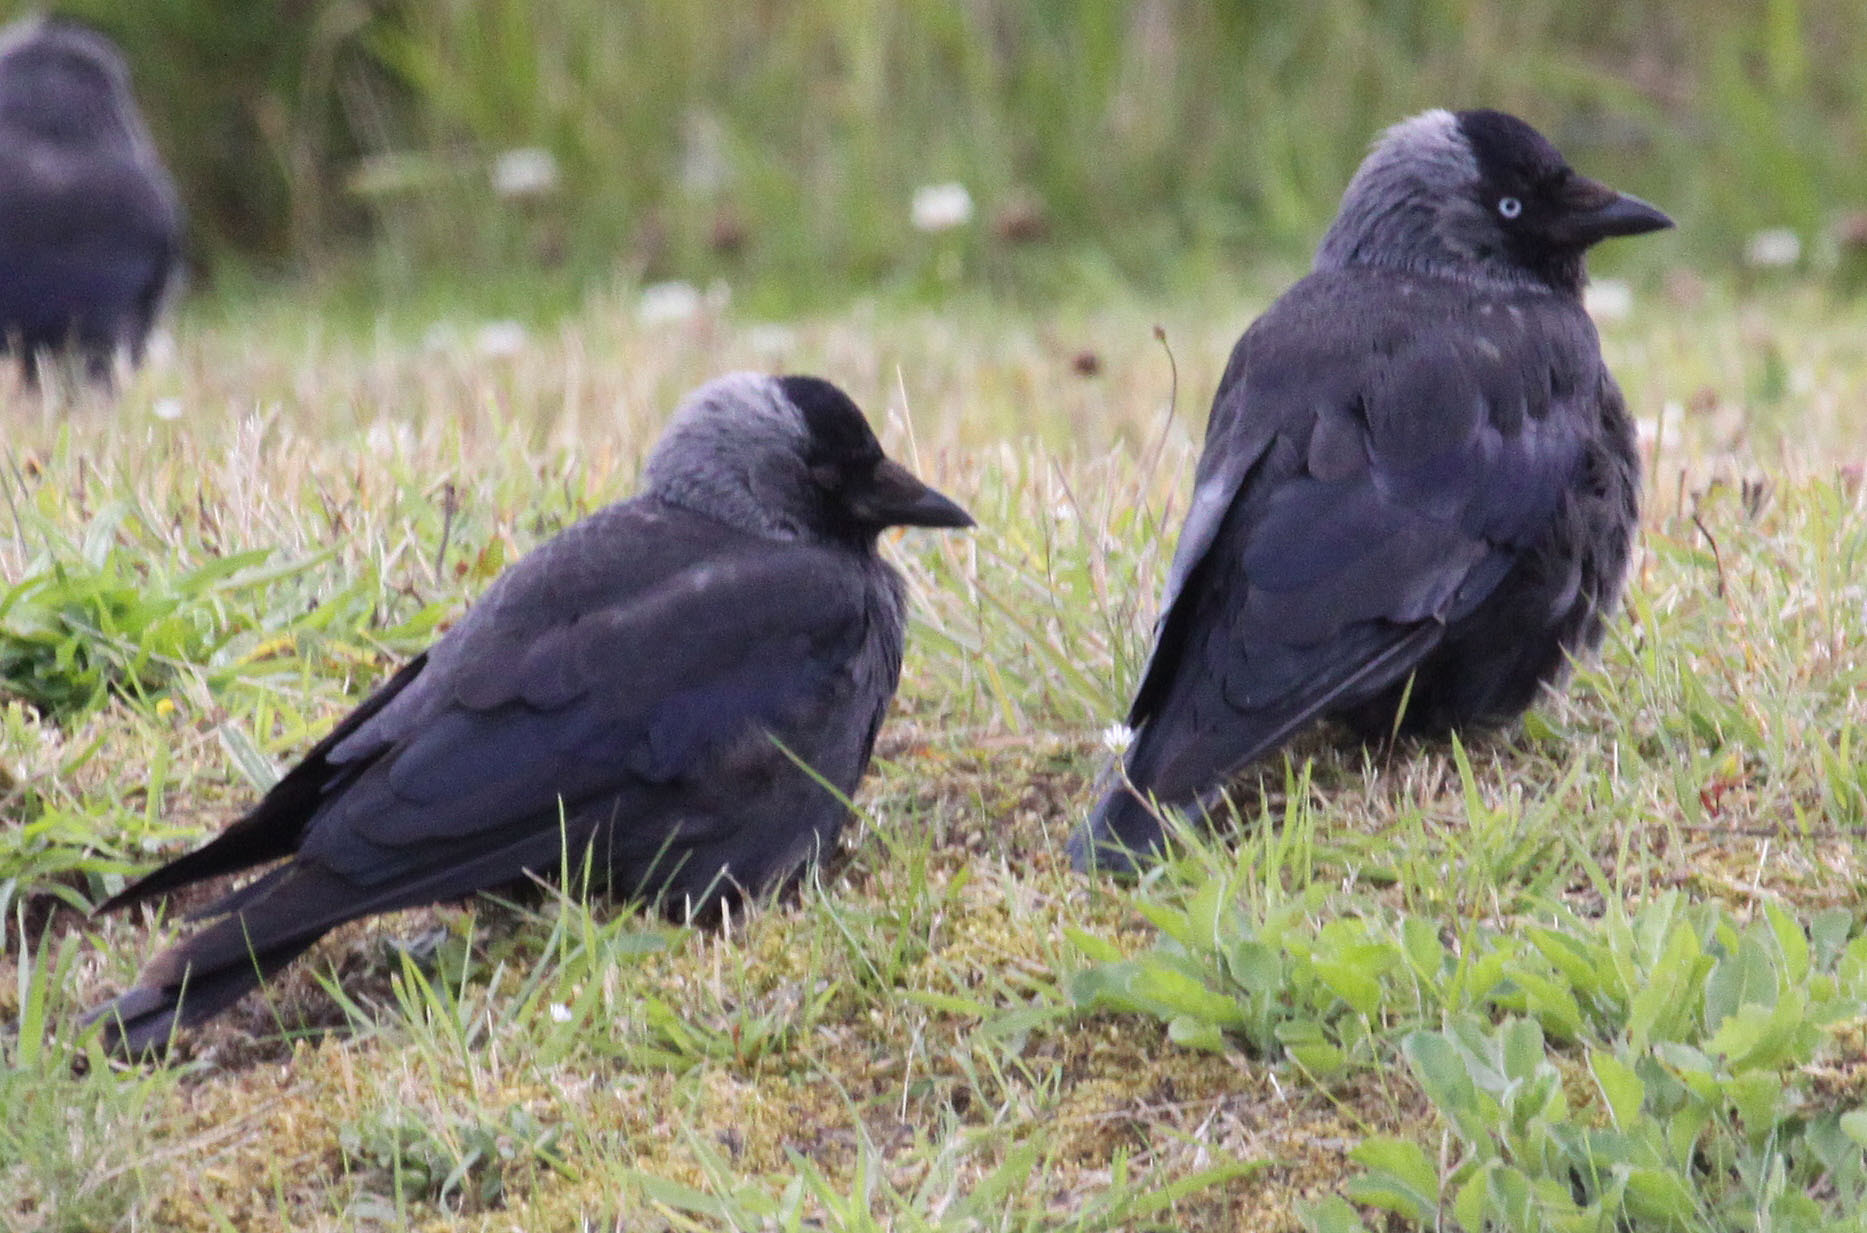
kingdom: Animalia
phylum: Chordata
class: Aves
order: Passeriformes
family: Corvidae
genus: Coloeus
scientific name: Coloeus monedula
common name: Western jackdaw
